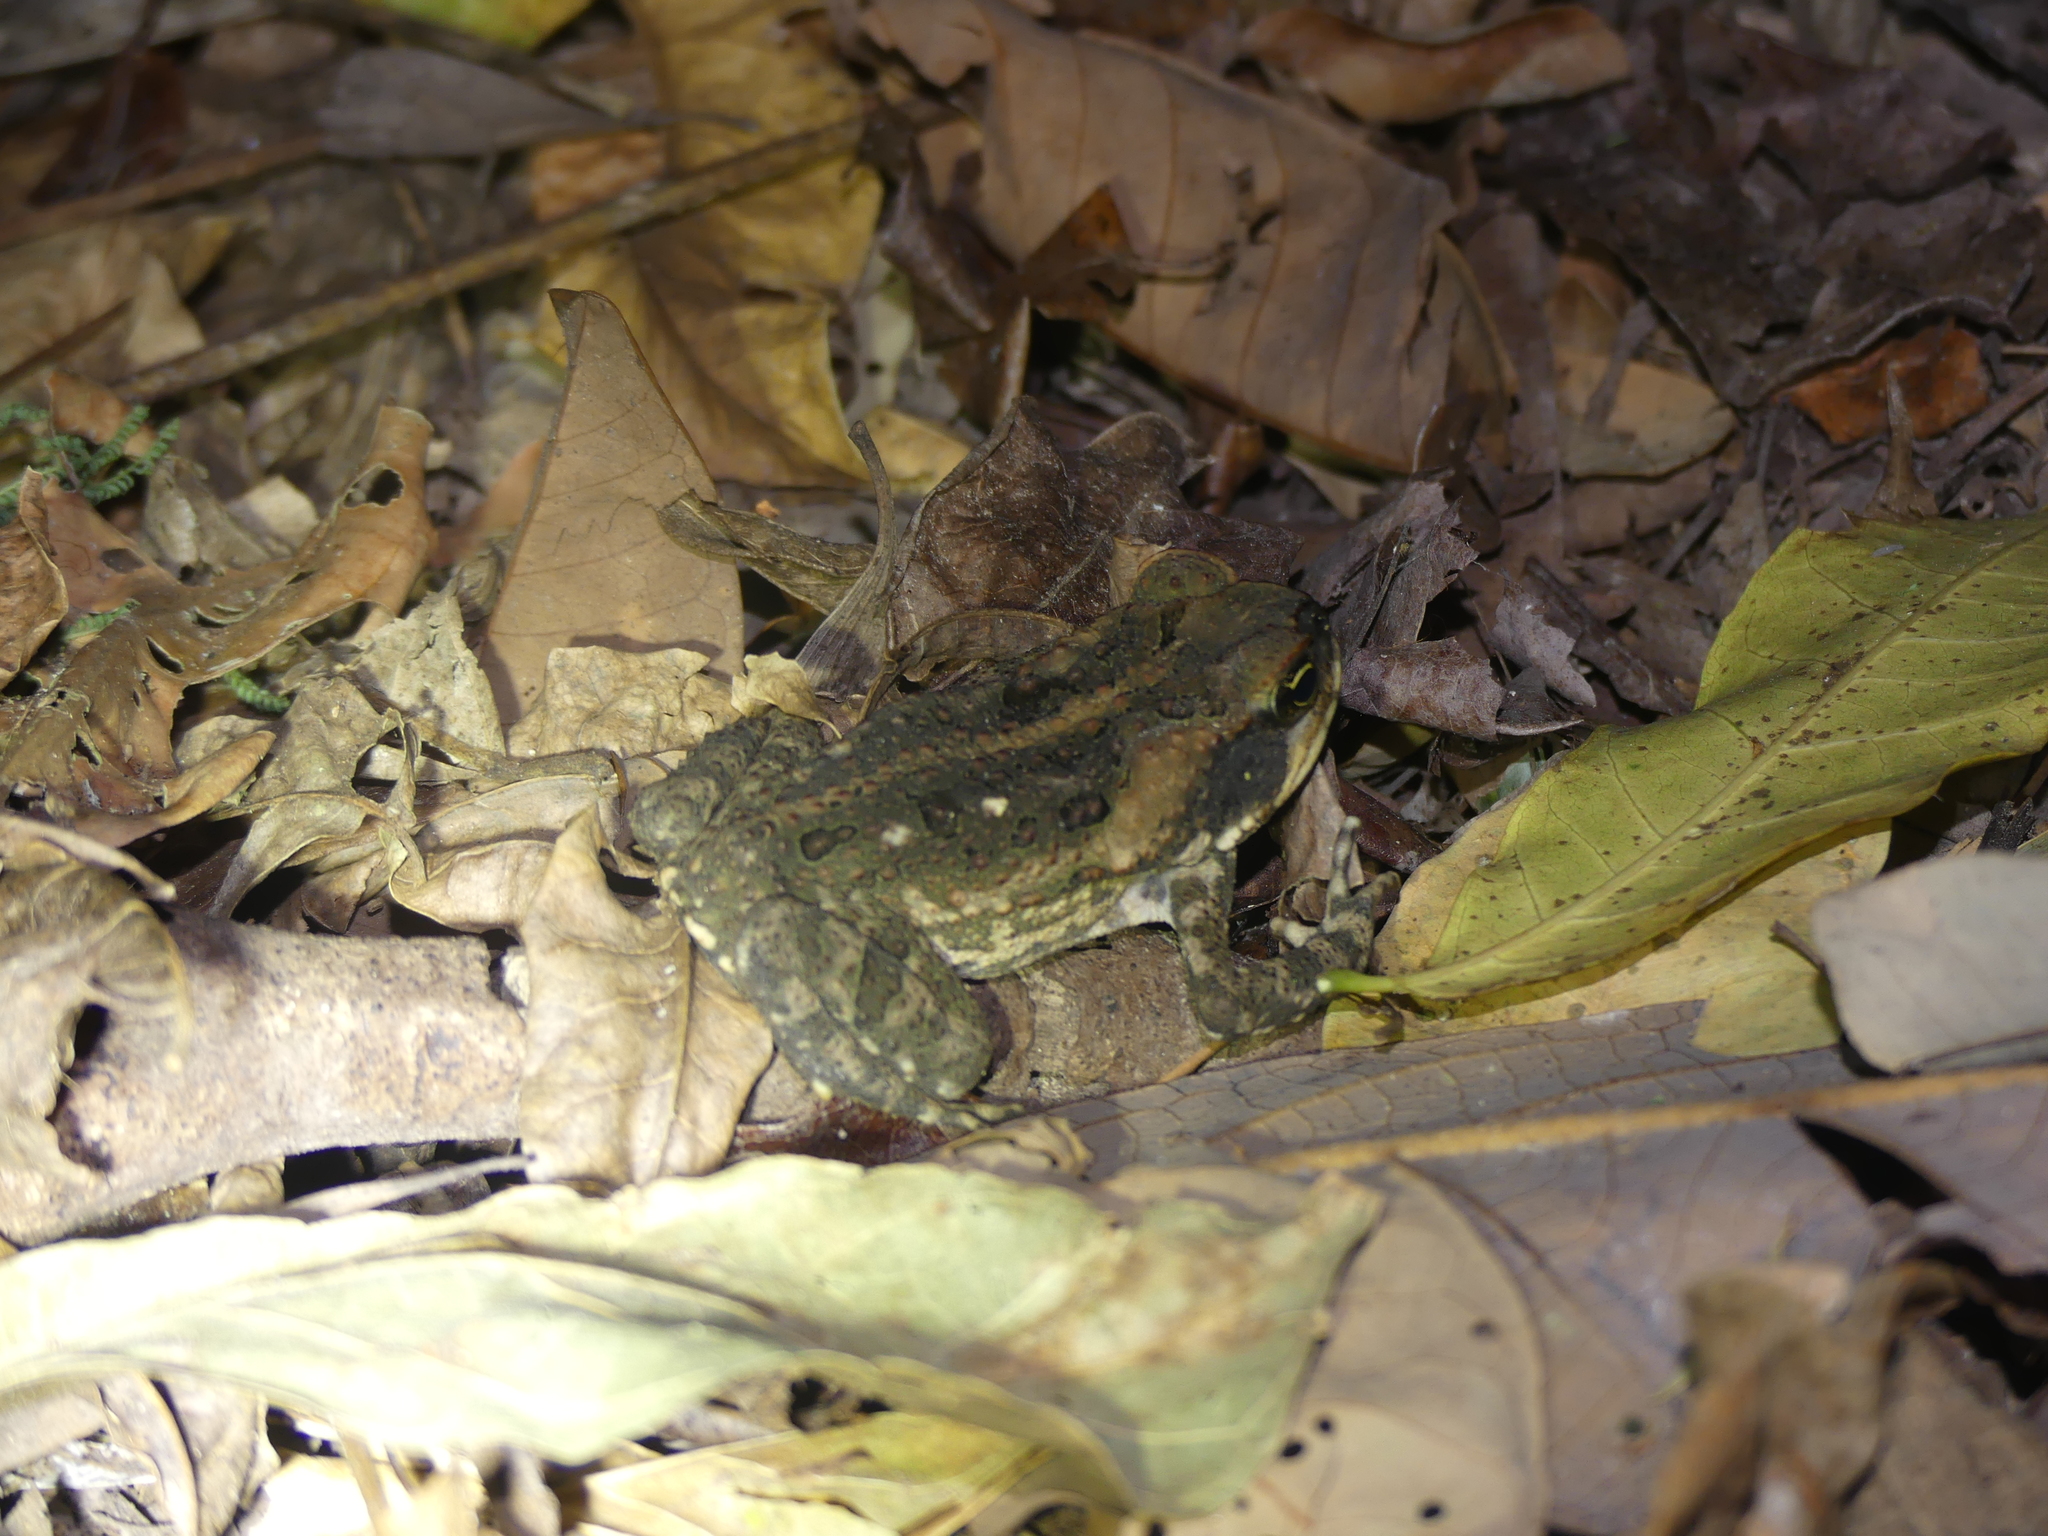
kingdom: Animalia
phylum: Chordata
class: Amphibia
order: Anura
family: Bufonidae
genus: Rhinella
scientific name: Rhinella marina
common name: Cane toad
